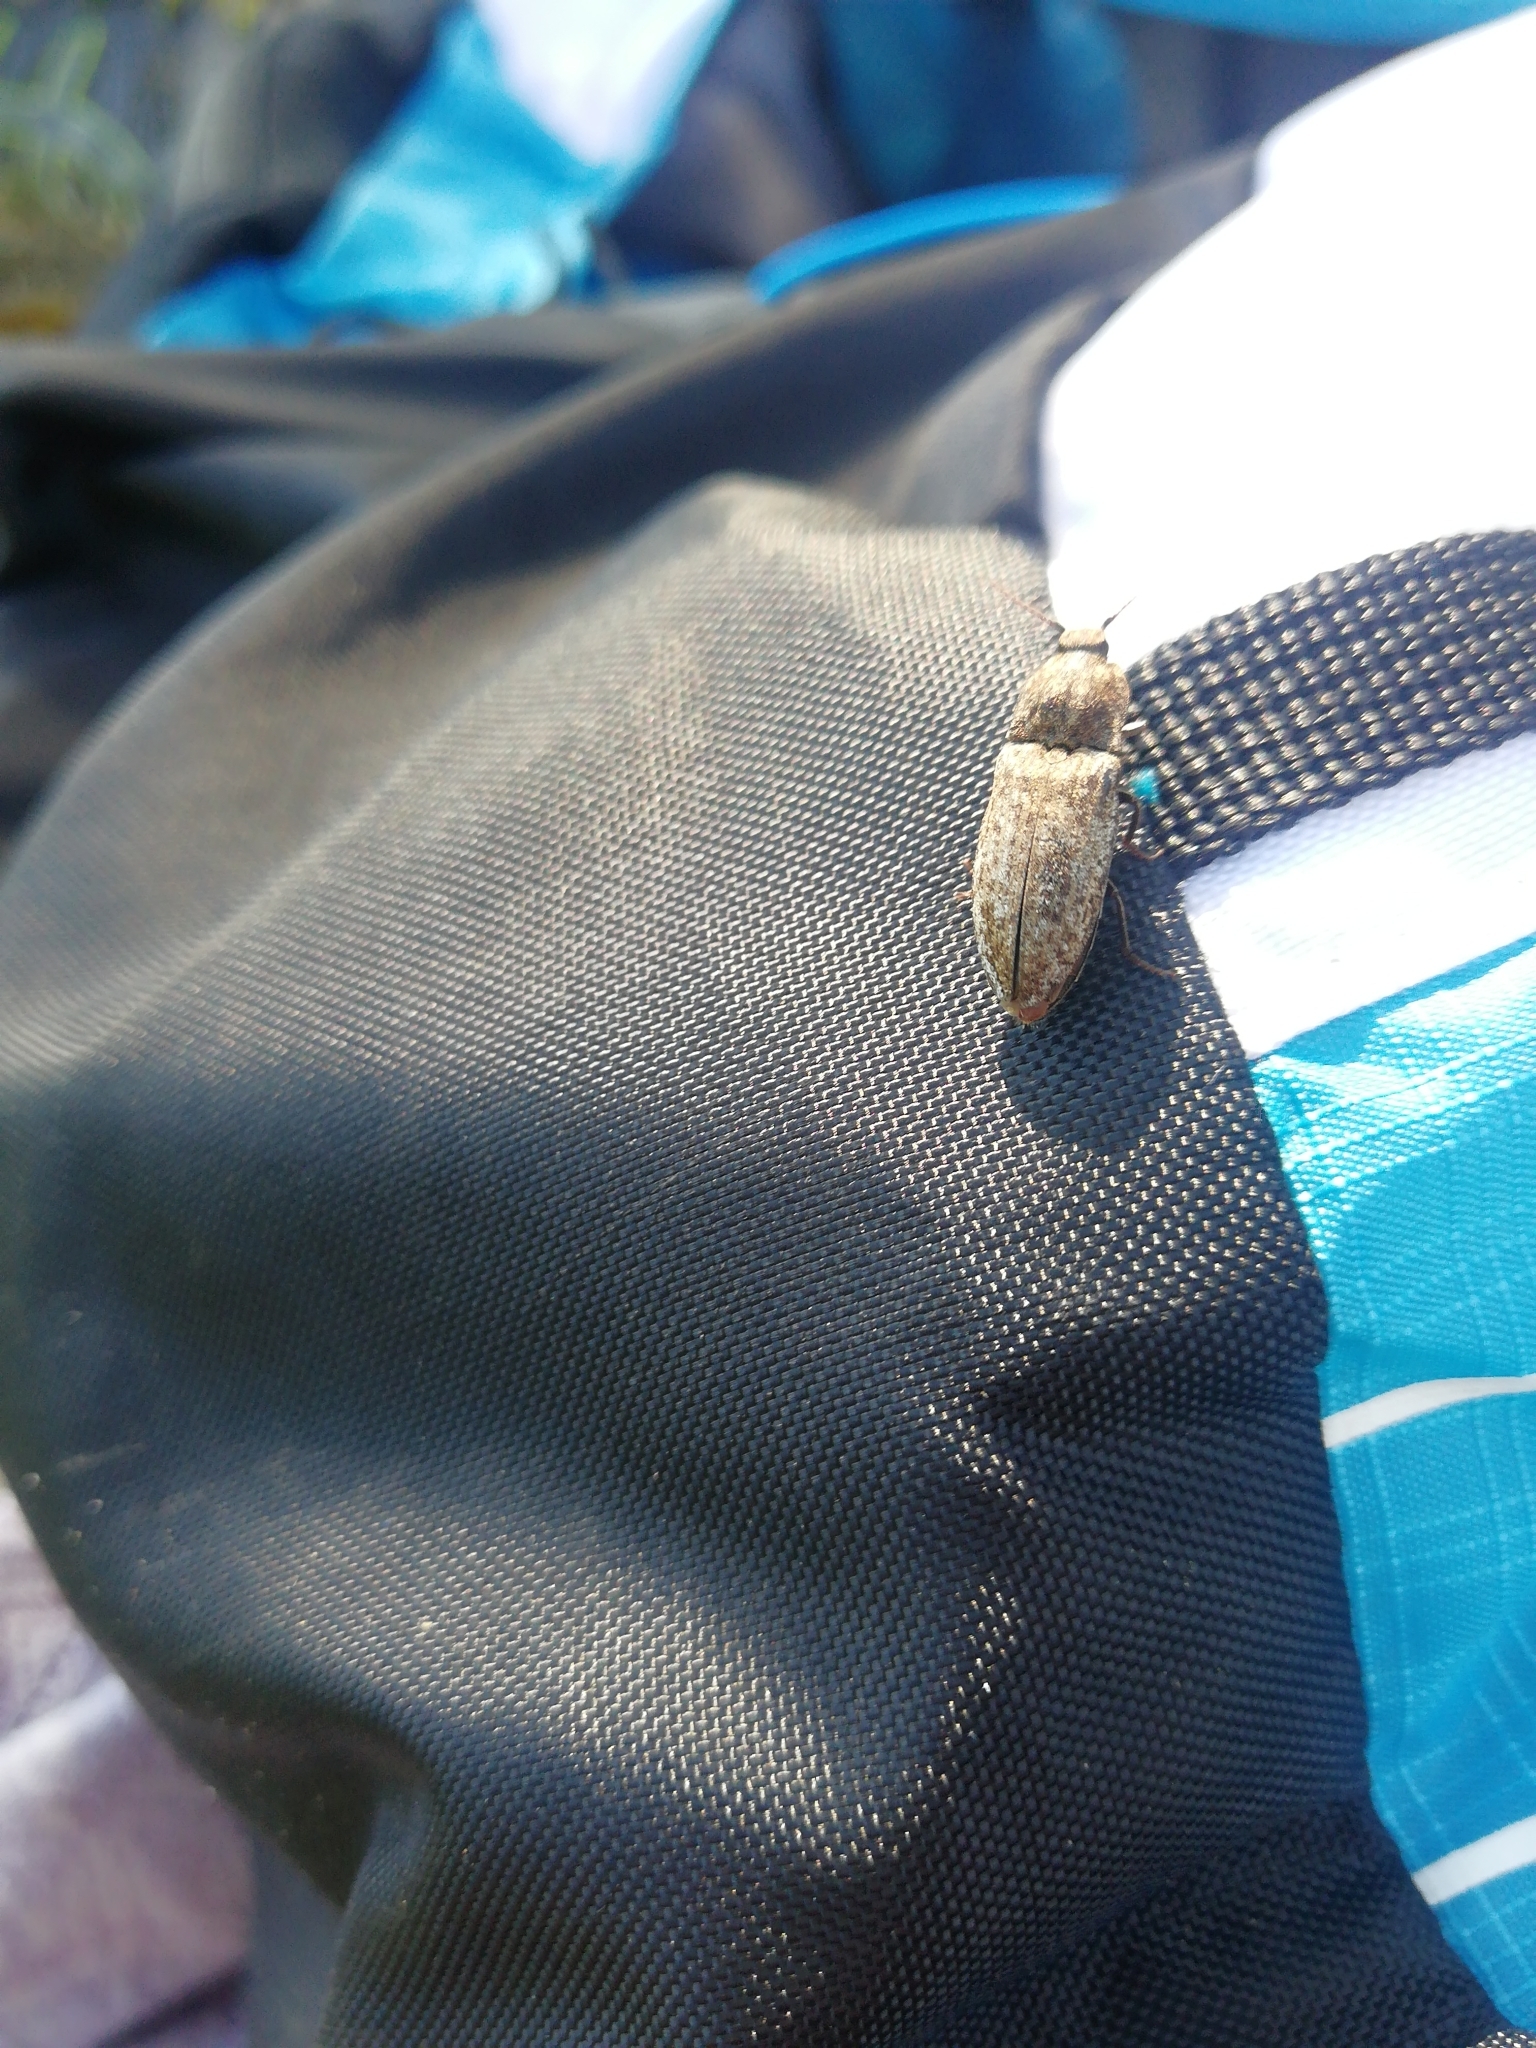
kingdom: Animalia
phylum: Arthropoda
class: Insecta
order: Coleoptera
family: Elateridae
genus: Agrypnus
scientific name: Agrypnus murinus
